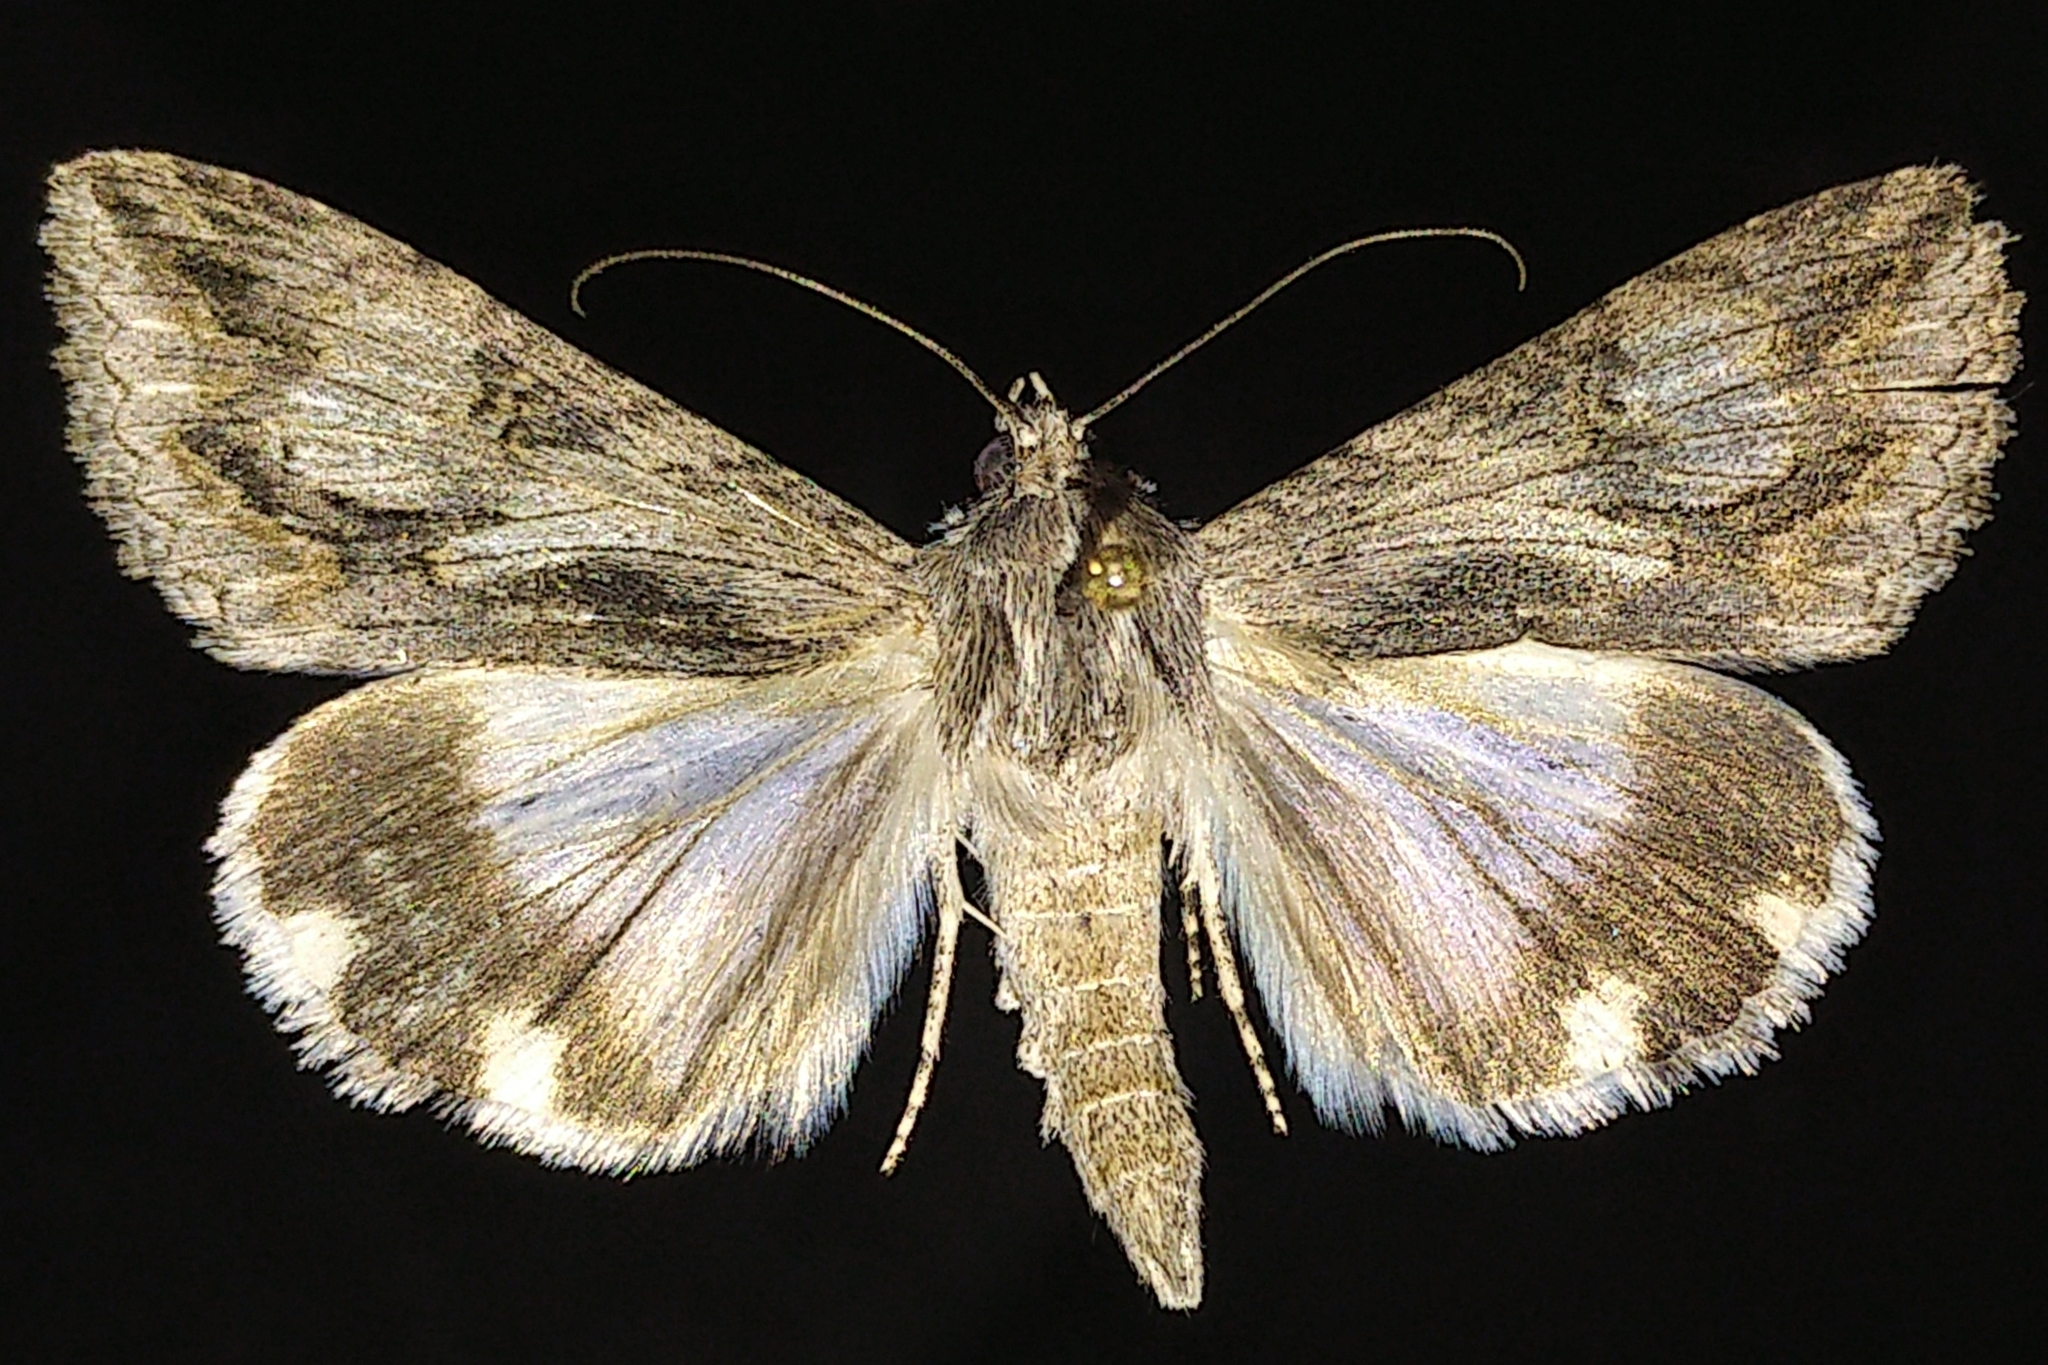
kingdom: Animalia
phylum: Arthropoda
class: Insecta
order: Lepidoptera
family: Erebidae
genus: Melipotis
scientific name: Melipotis jucunda
